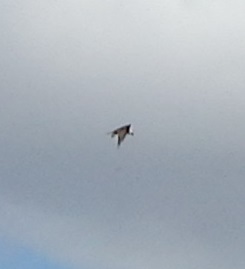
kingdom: Animalia
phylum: Chordata
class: Aves
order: Accipitriformes
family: Pandionidae
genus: Pandion
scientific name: Pandion haliaetus
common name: Osprey
